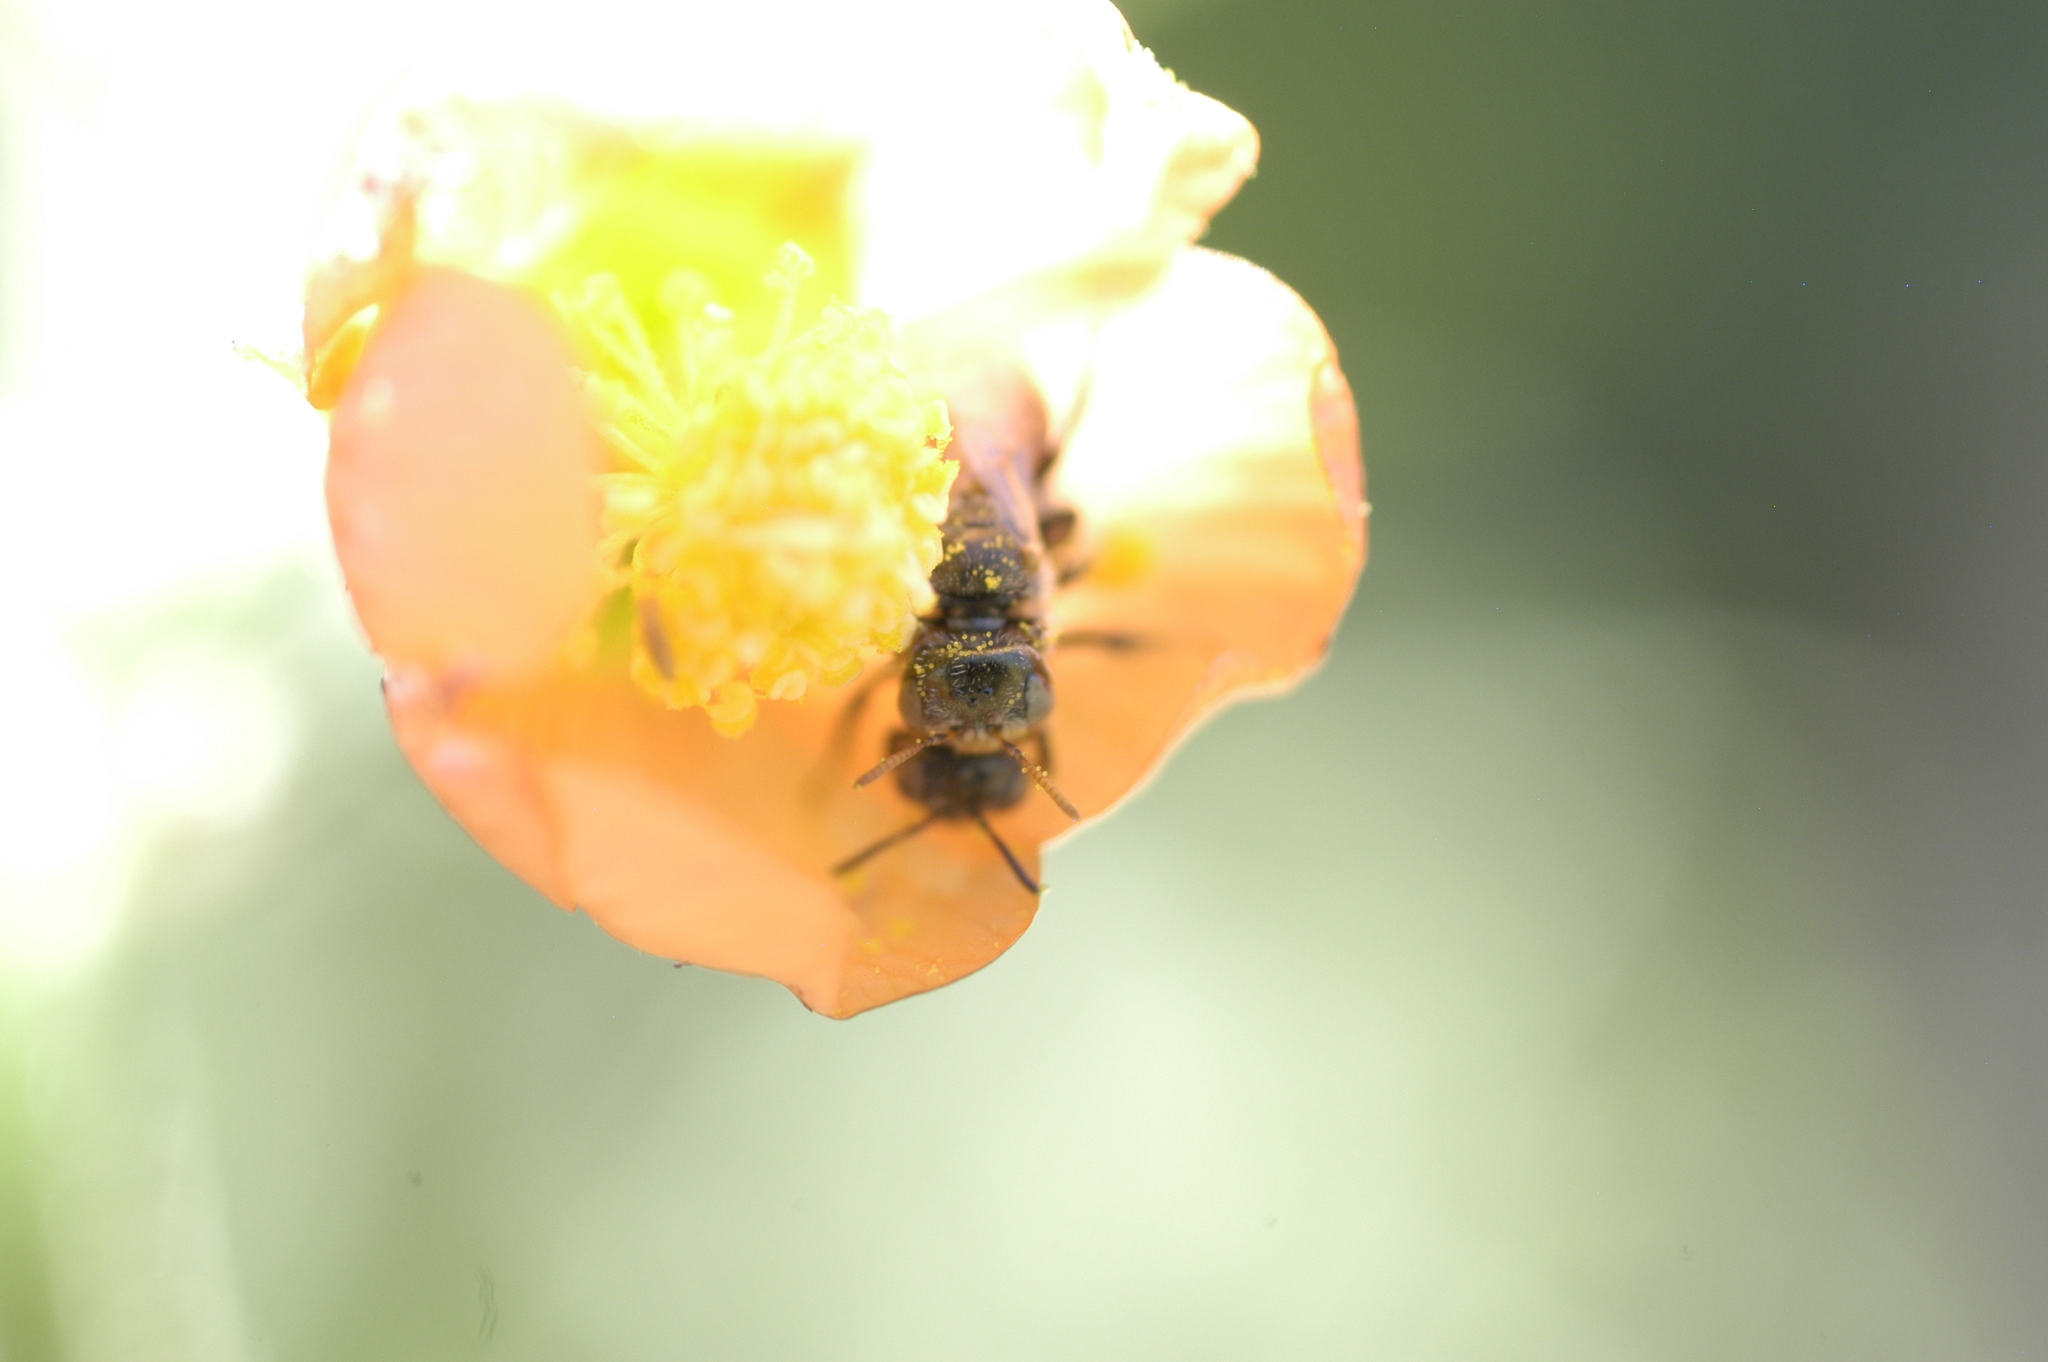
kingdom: Animalia
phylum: Arthropoda
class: Insecta
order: Hymenoptera
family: Andrenidae
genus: Macrotera
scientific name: Macrotera latior
